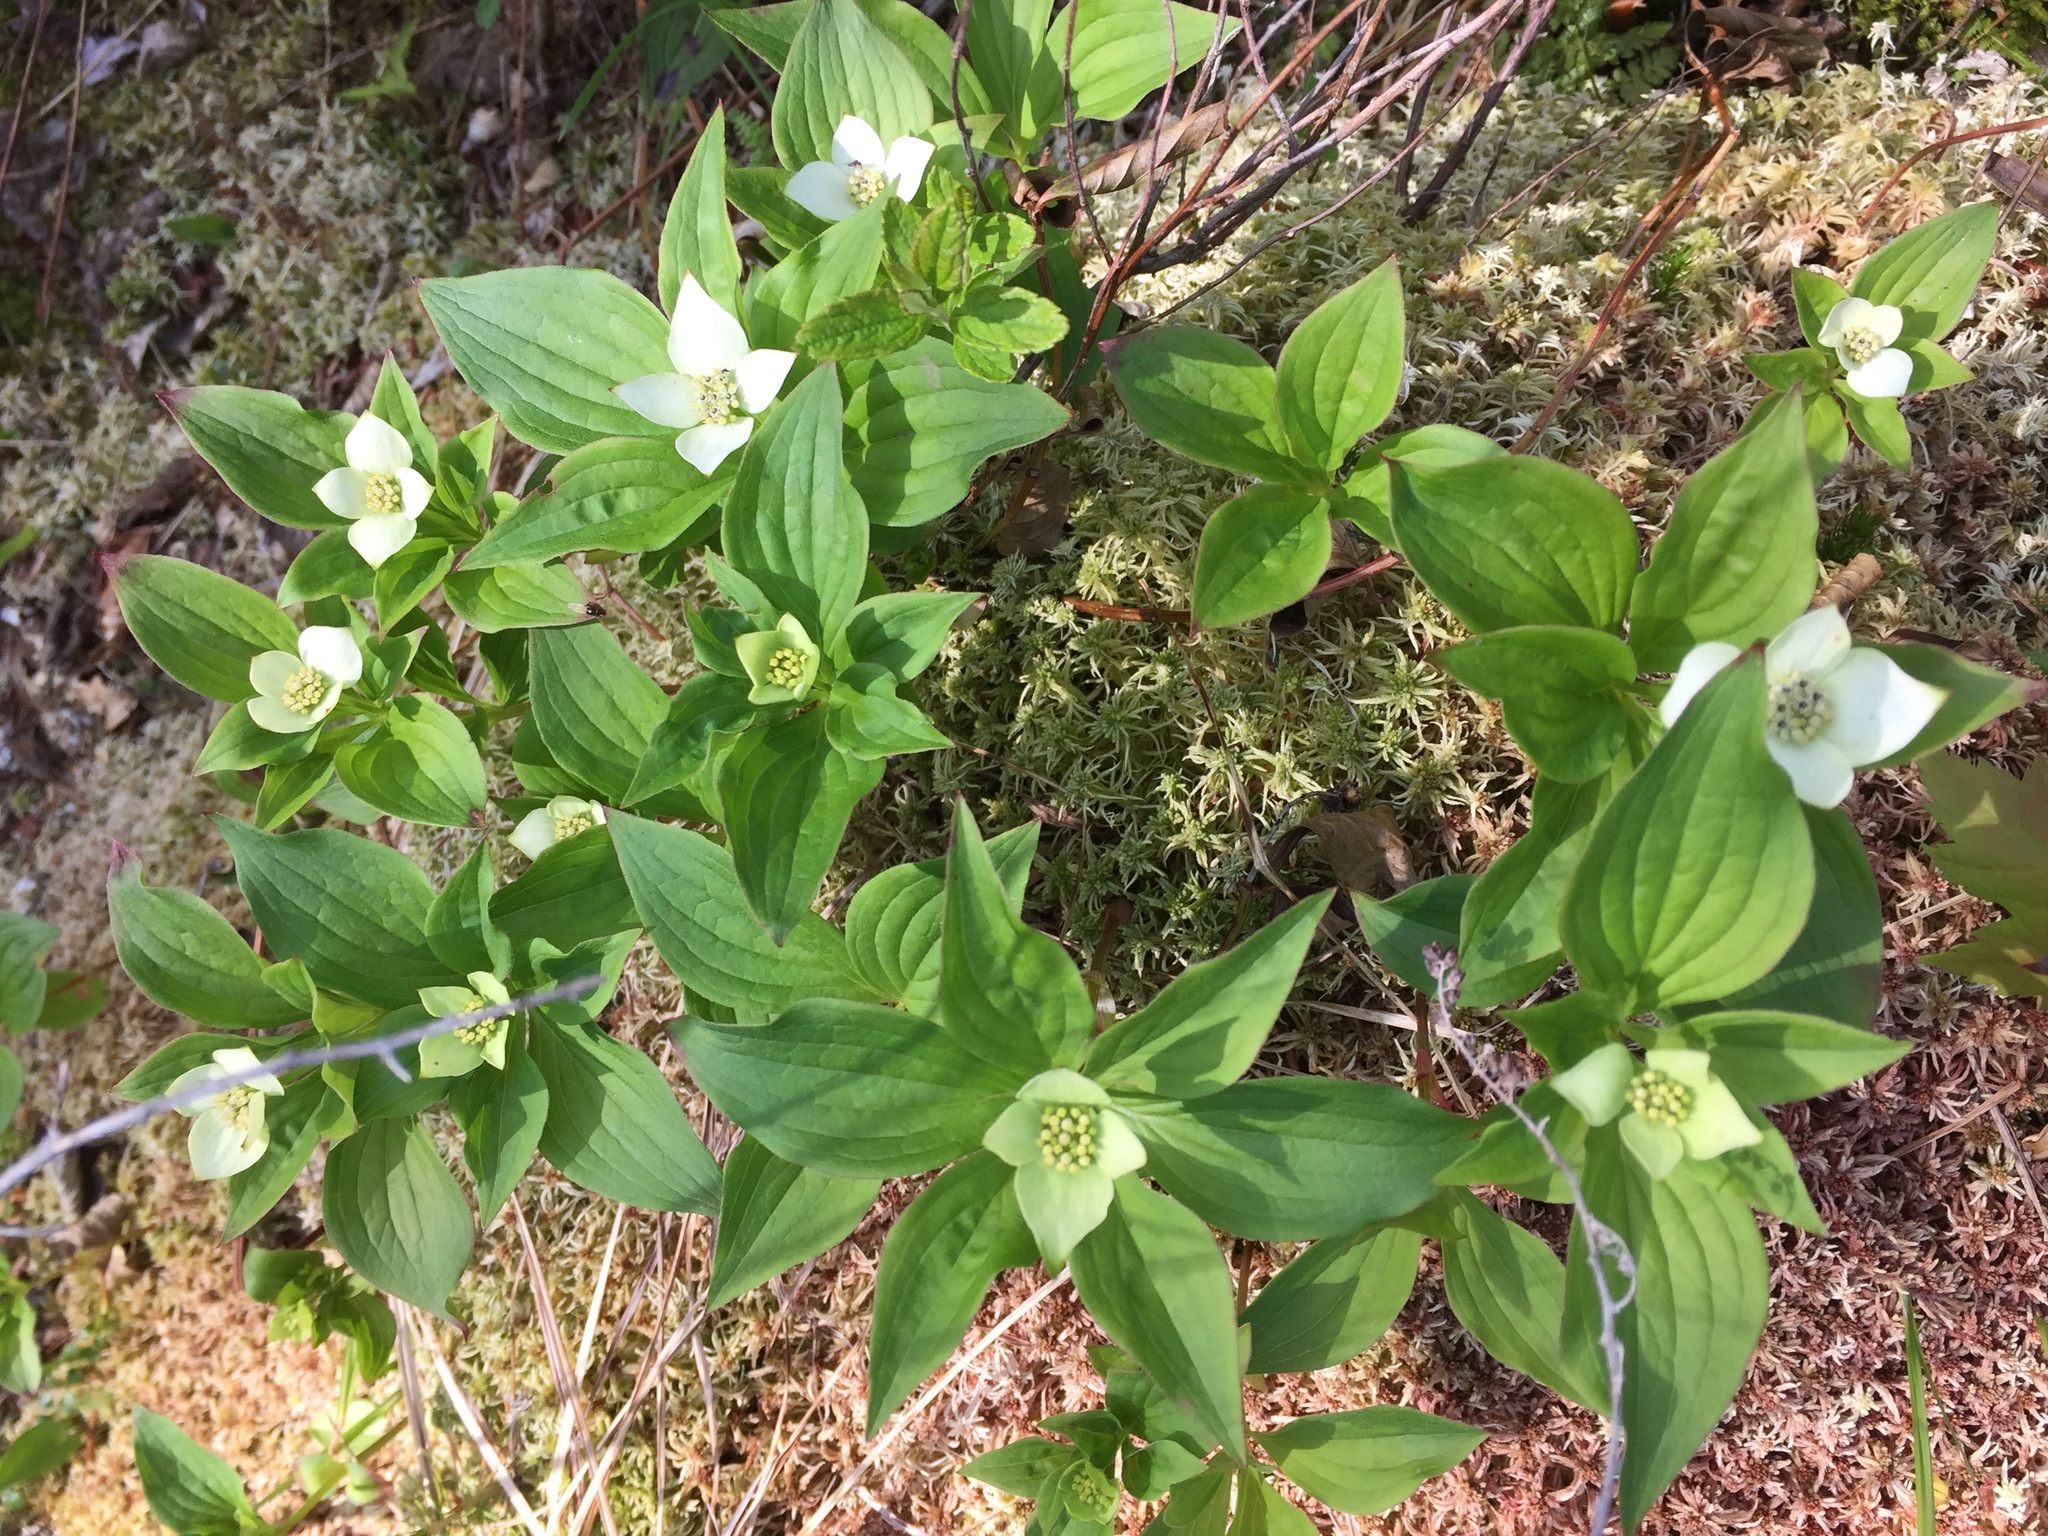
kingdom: Plantae
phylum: Tracheophyta
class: Magnoliopsida
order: Cornales
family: Cornaceae
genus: Cornus
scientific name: Cornus canadensis
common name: Creeping dogwood
